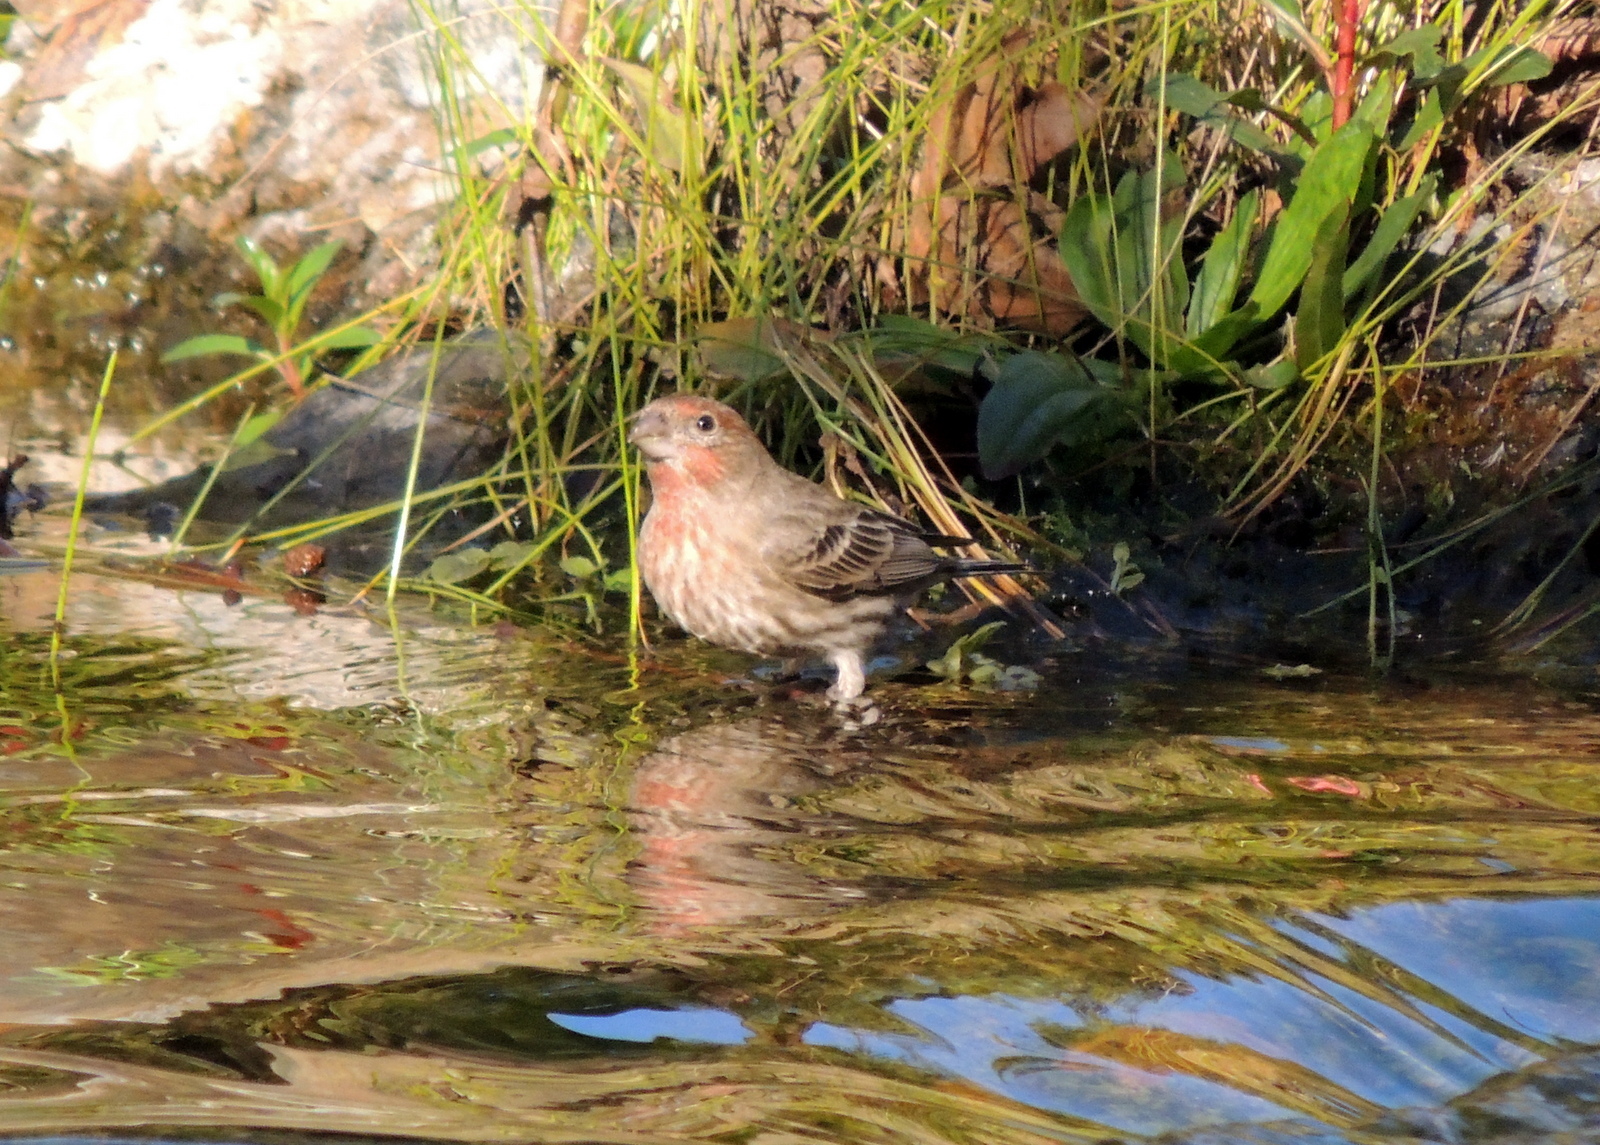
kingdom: Animalia
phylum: Chordata
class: Aves
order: Passeriformes
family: Fringillidae
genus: Haemorhous
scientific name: Haemorhous mexicanus
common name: House finch
